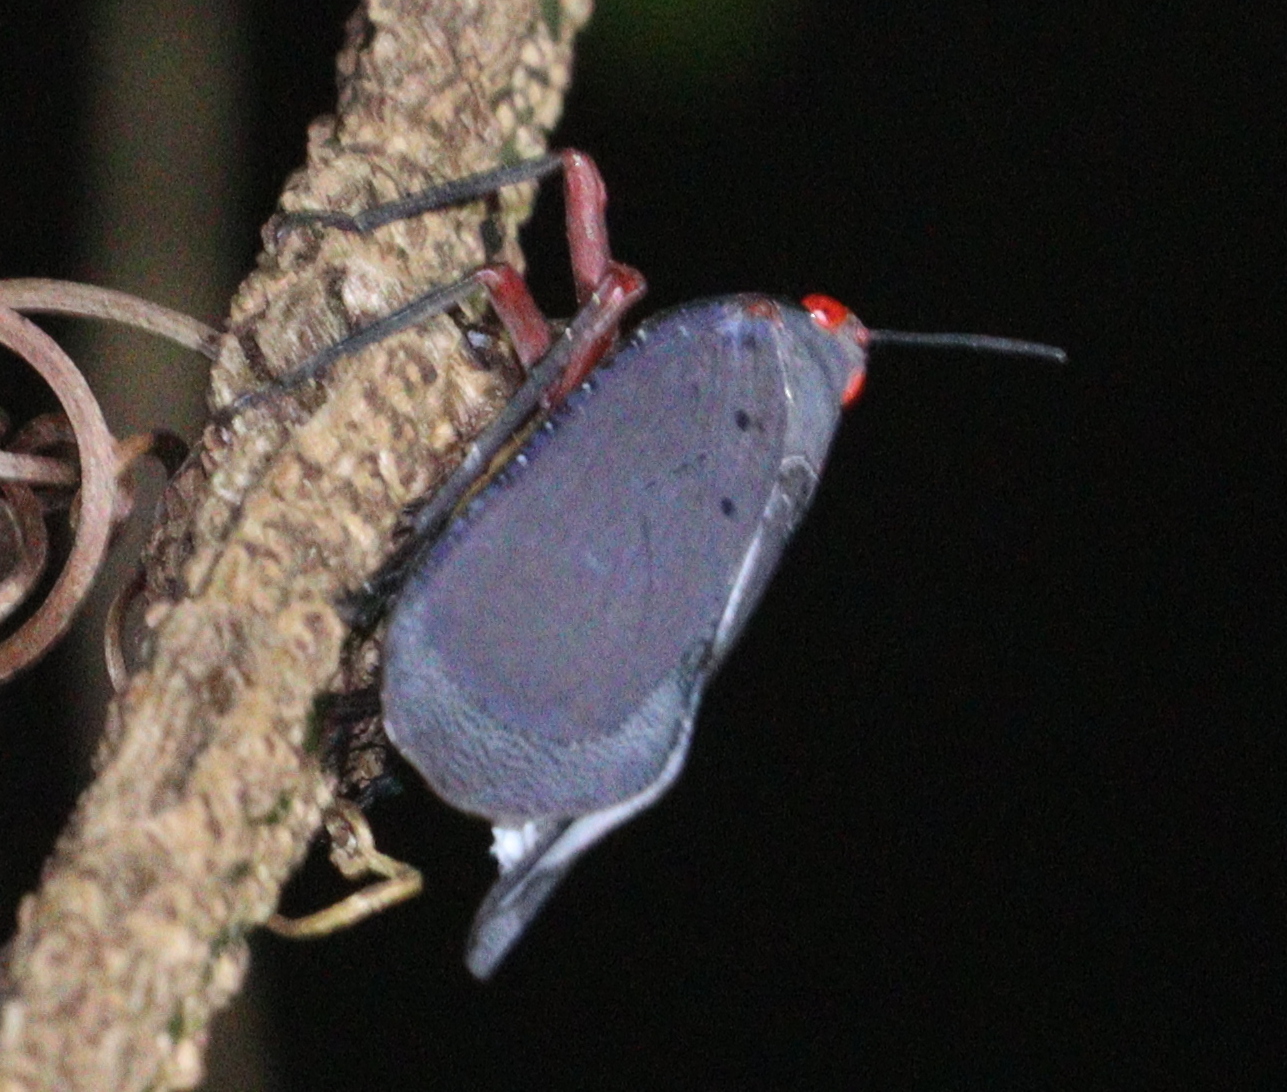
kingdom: Animalia
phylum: Arthropoda
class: Insecta
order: Hemiptera
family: Fulgoridae
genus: Kalidasa
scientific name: Kalidasa nigromaculata
